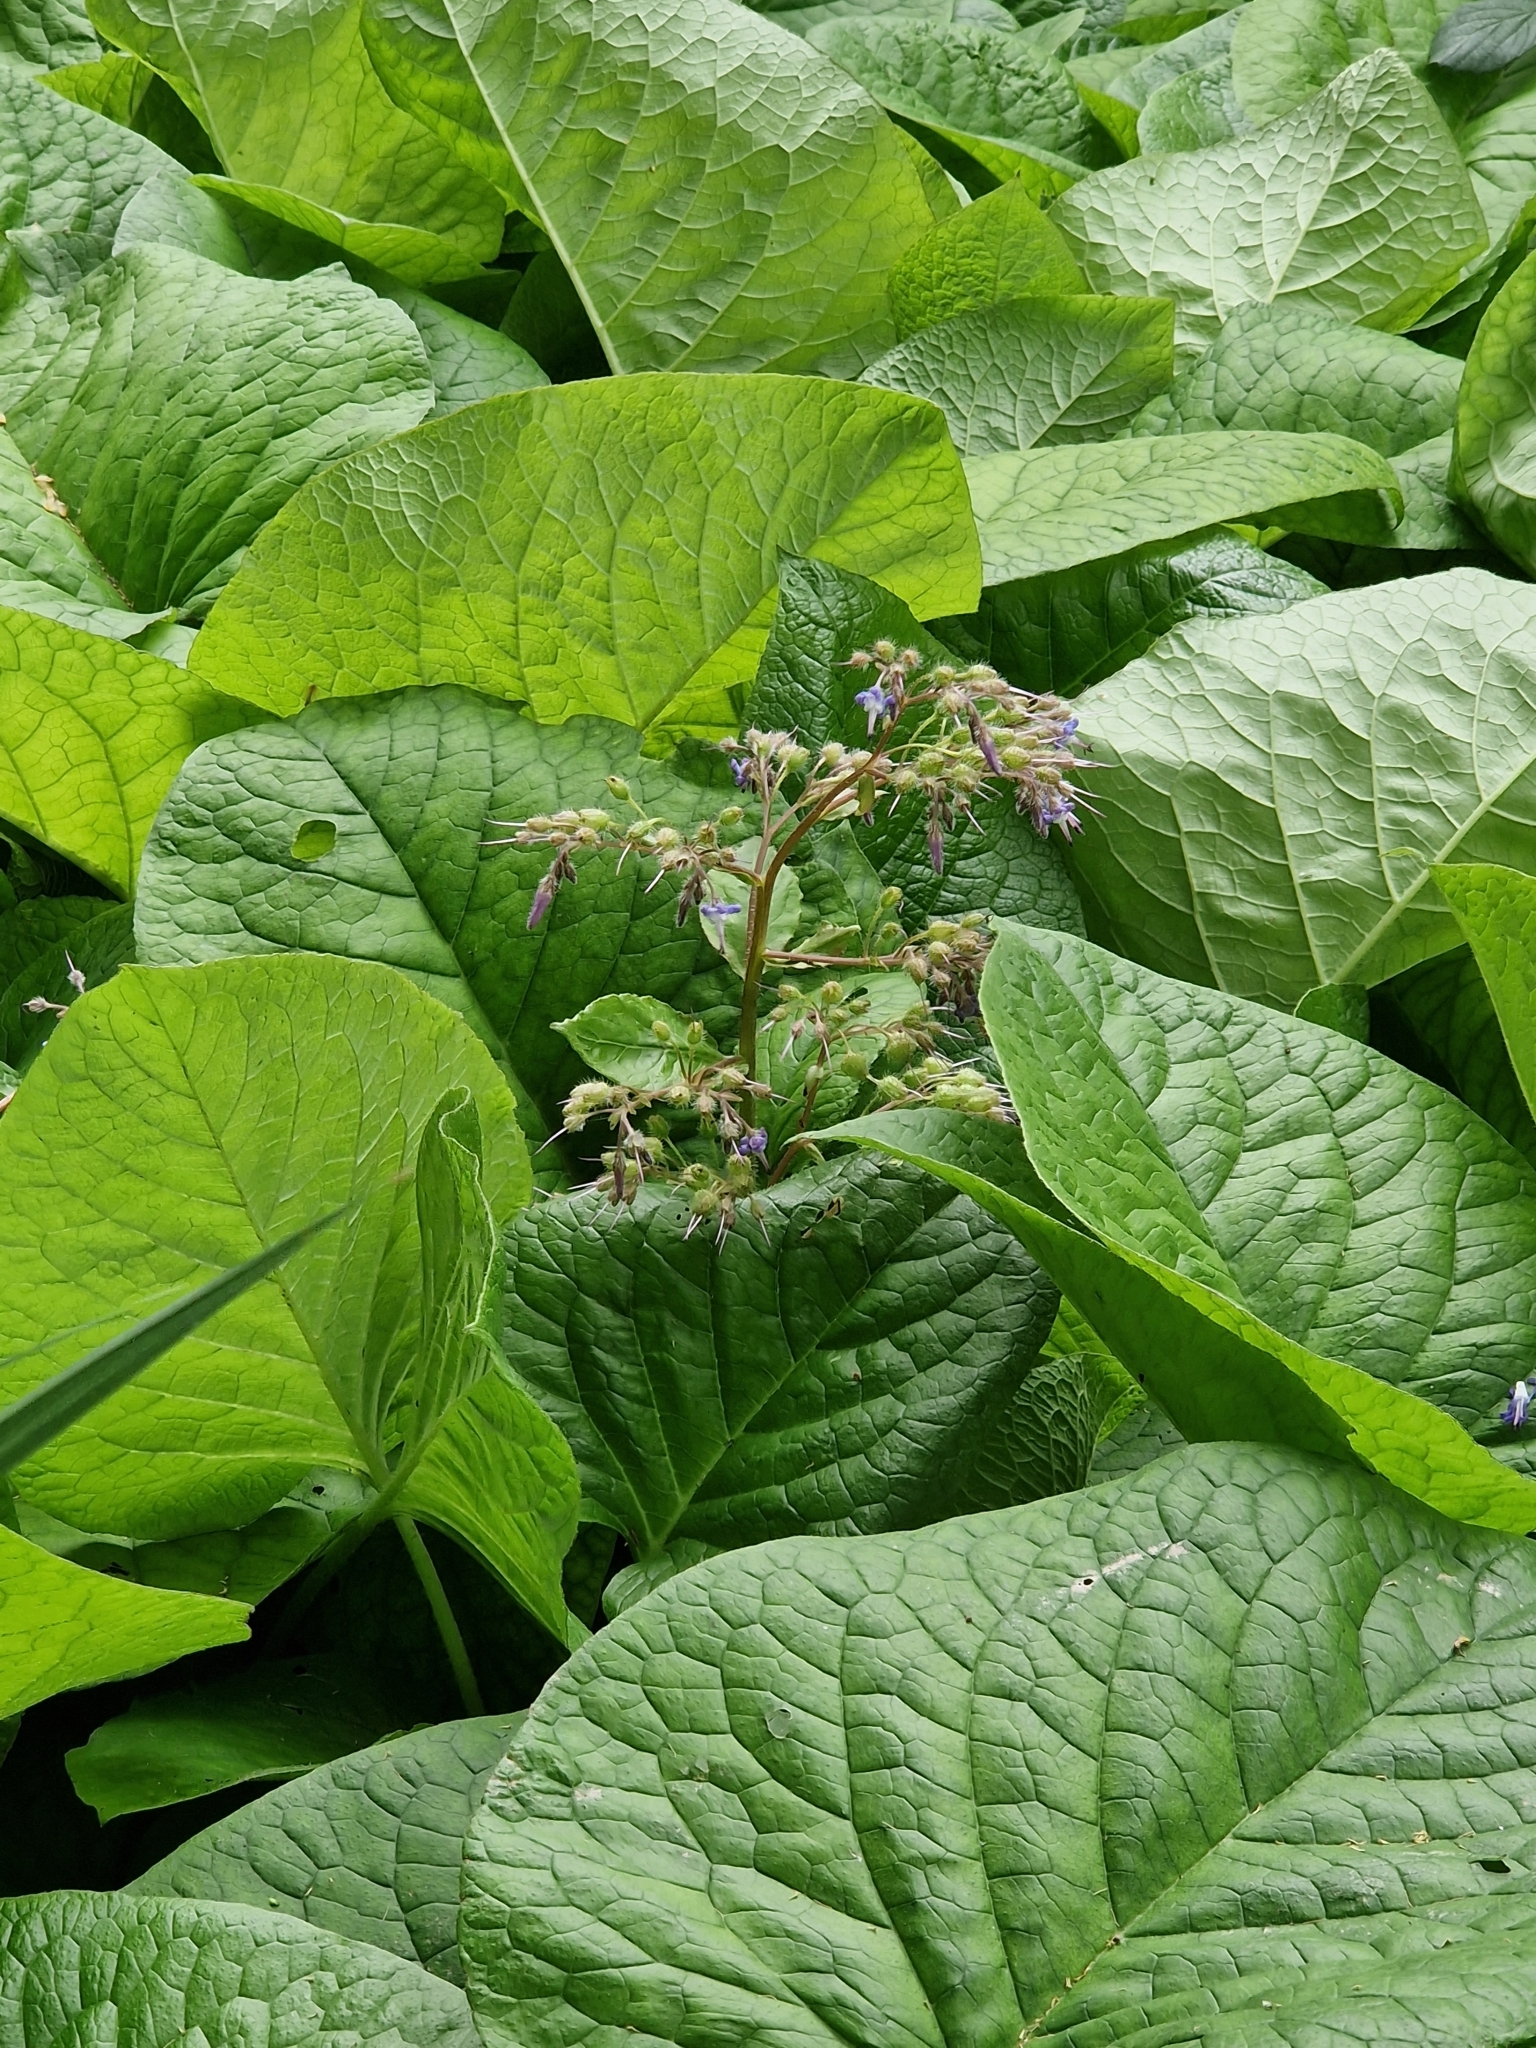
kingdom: Plantae
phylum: Tracheophyta
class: Magnoliopsida
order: Boraginales
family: Boraginaceae
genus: Trachystemon
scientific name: Trachystemon orientale
